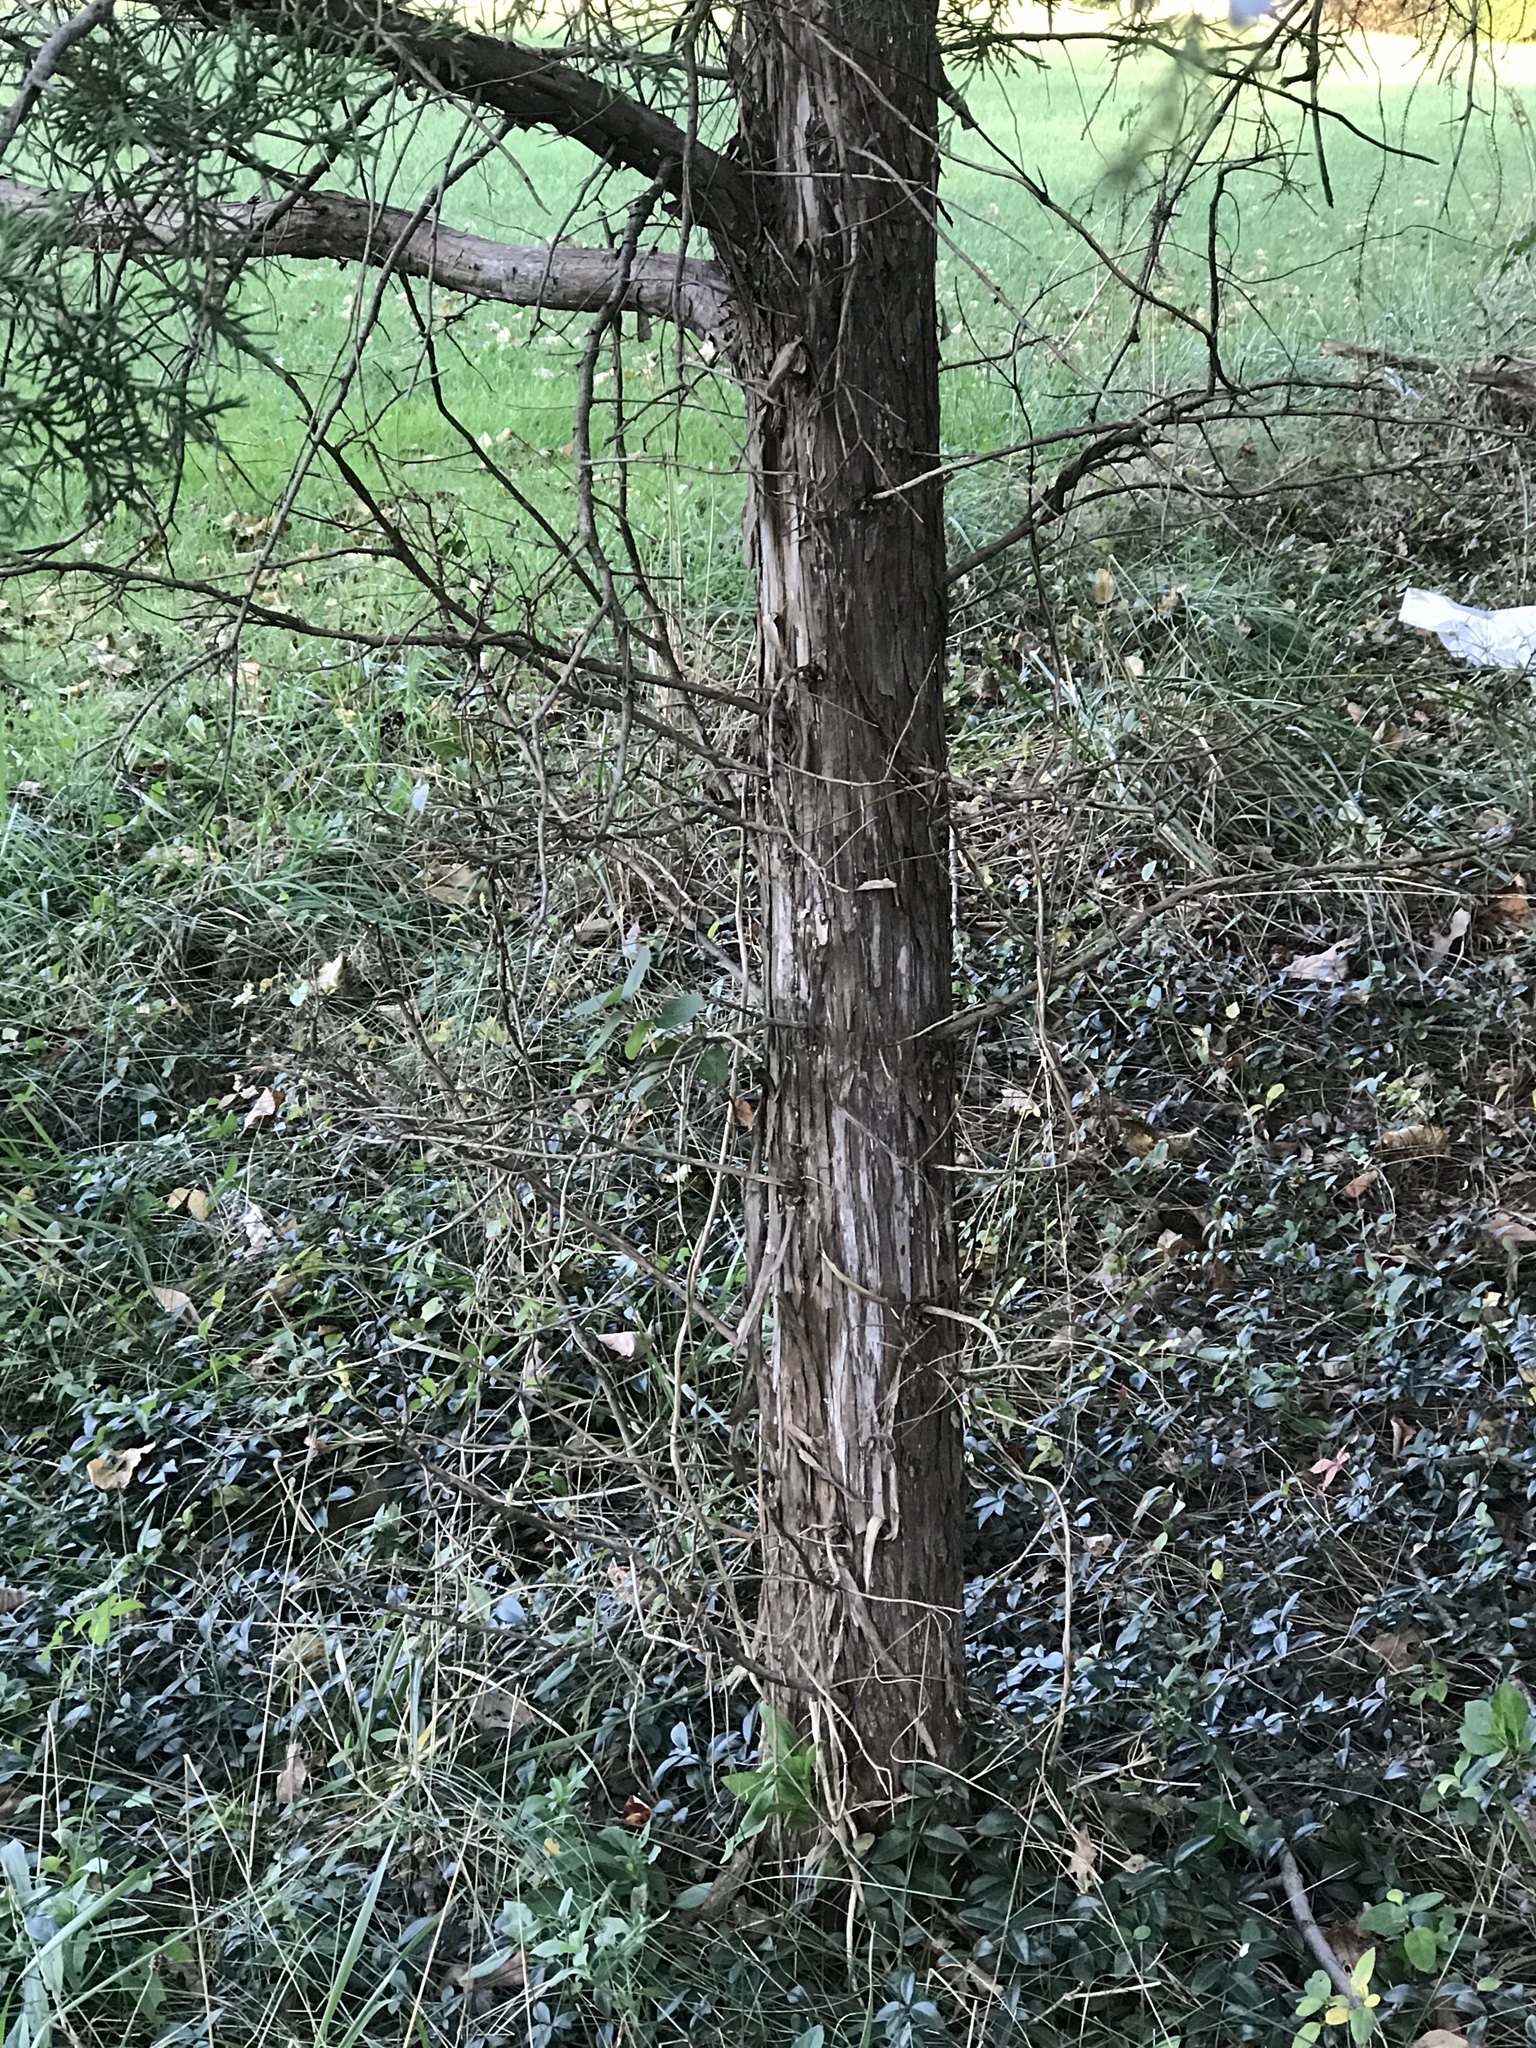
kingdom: Plantae
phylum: Tracheophyta
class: Pinopsida
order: Pinales
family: Cupressaceae
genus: Juniperus
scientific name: Juniperus virginiana
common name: Red juniper
